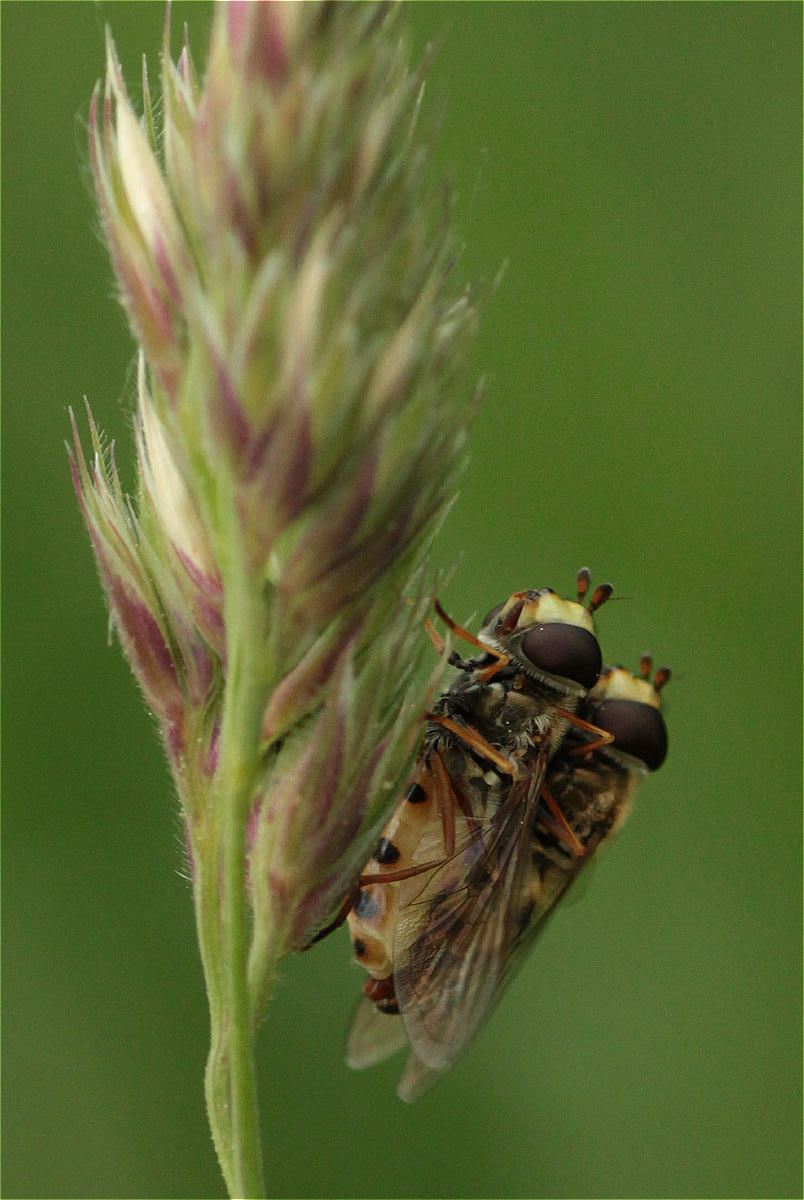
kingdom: Animalia
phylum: Arthropoda
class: Insecta
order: Diptera
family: Syrphidae
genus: Eupeodes
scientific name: Eupeodes corollae
